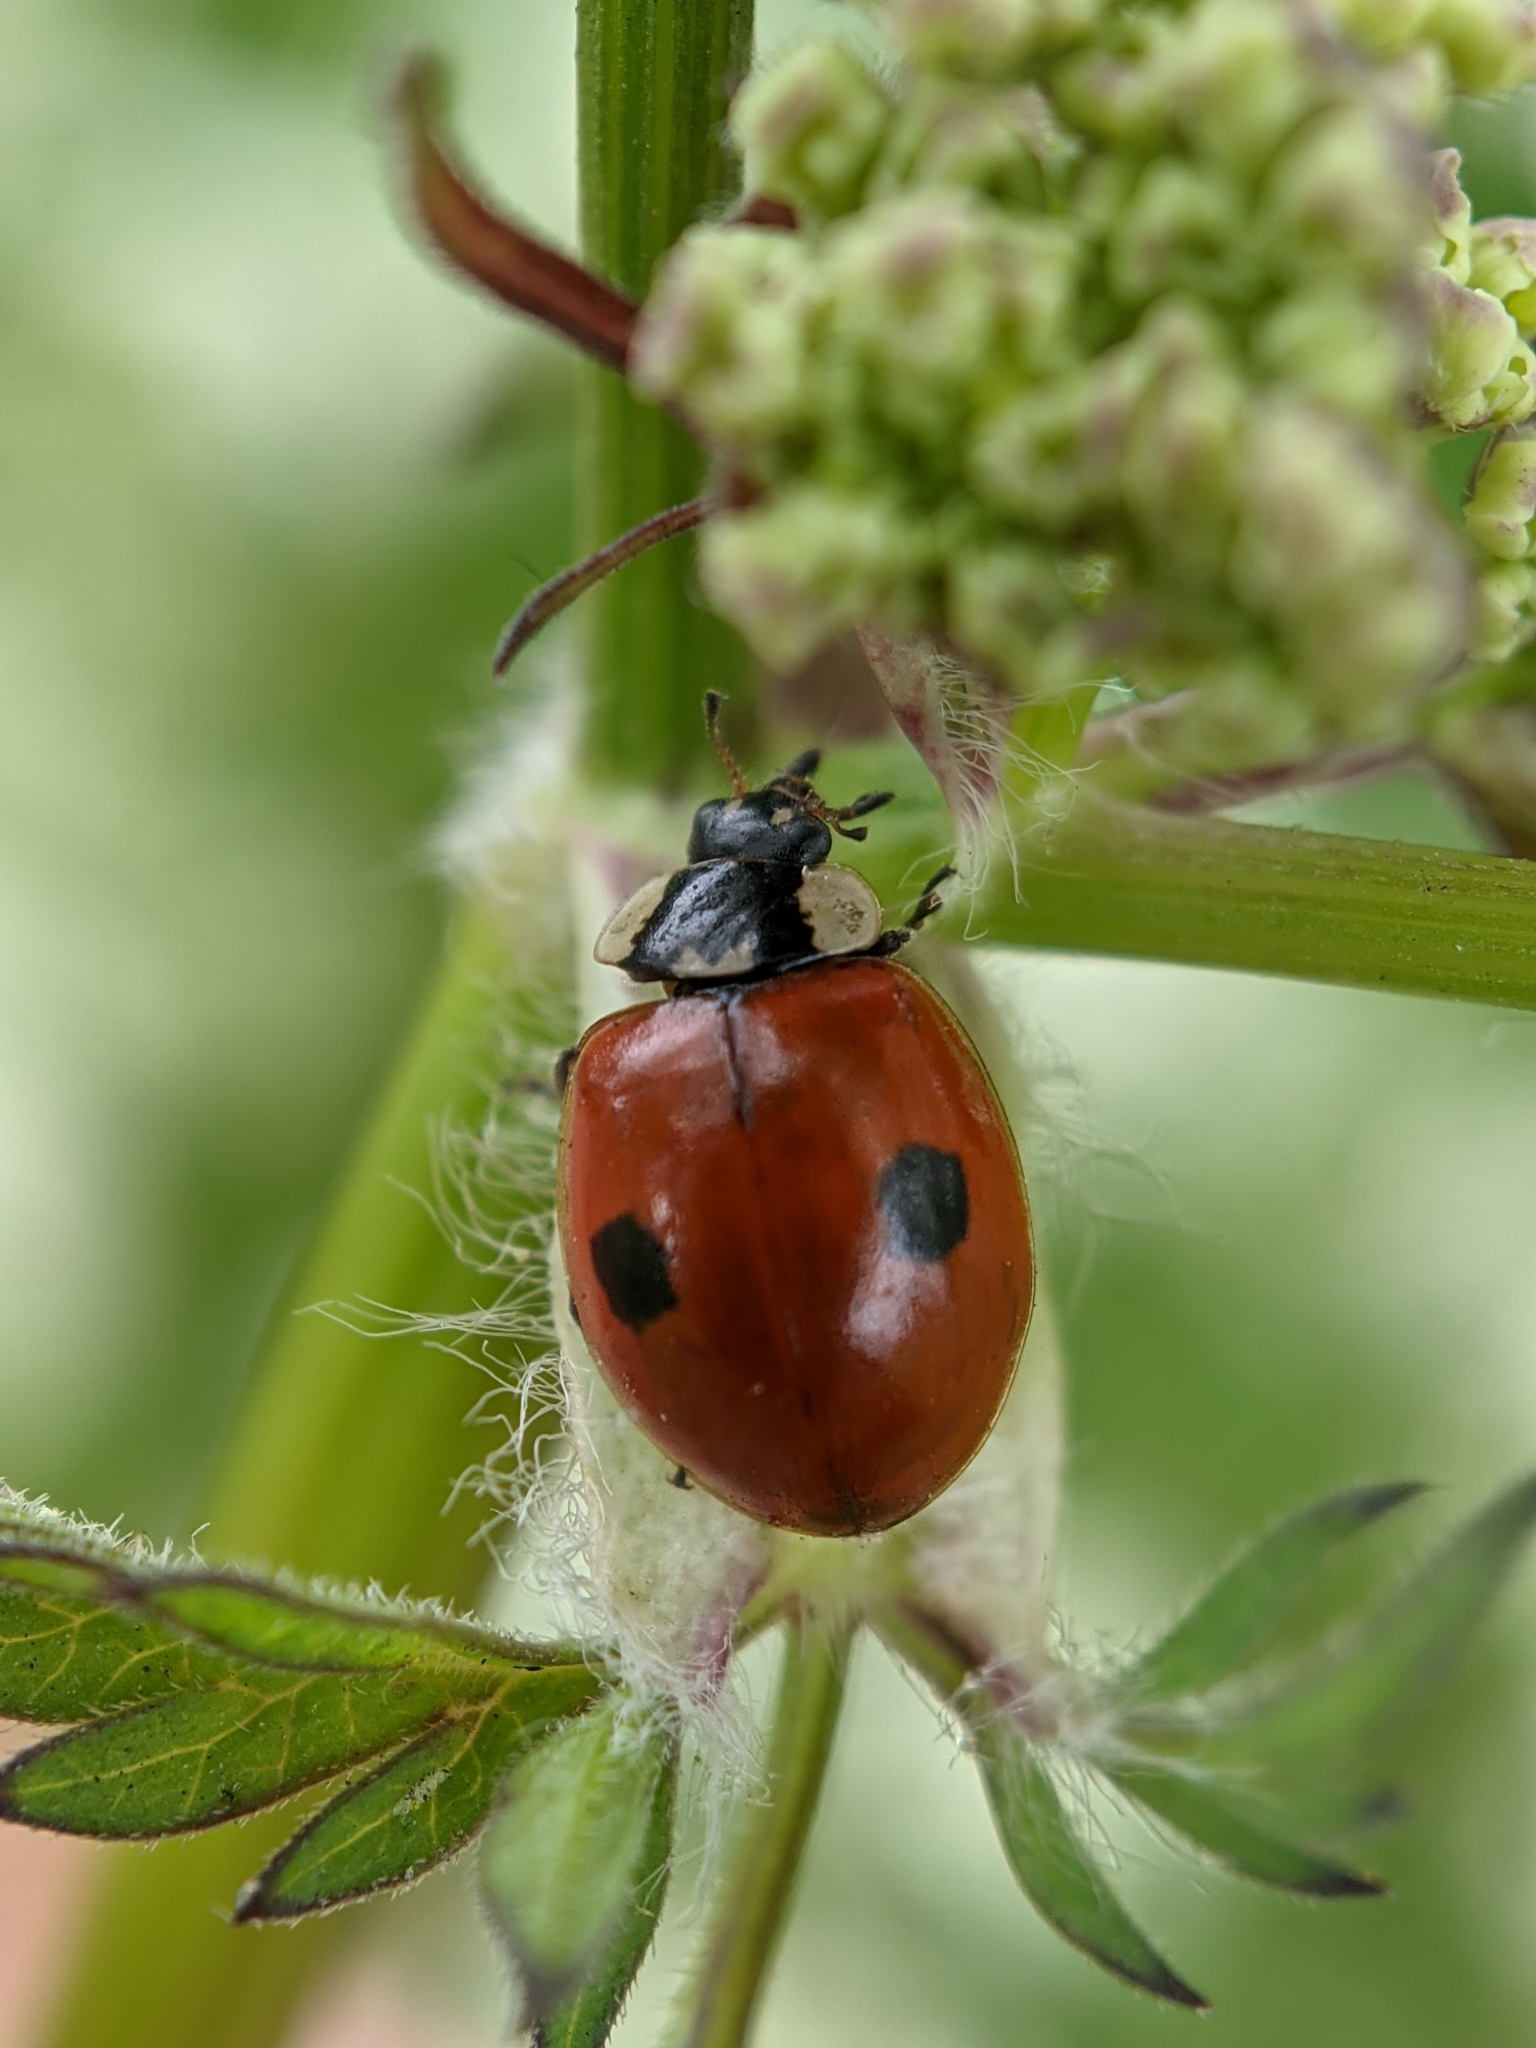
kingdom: Animalia
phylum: Arthropoda
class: Insecta
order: Coleoptera
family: Coccinellidae
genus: Adalia
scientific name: Adalia bipunctata
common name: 2-spot ladybird
